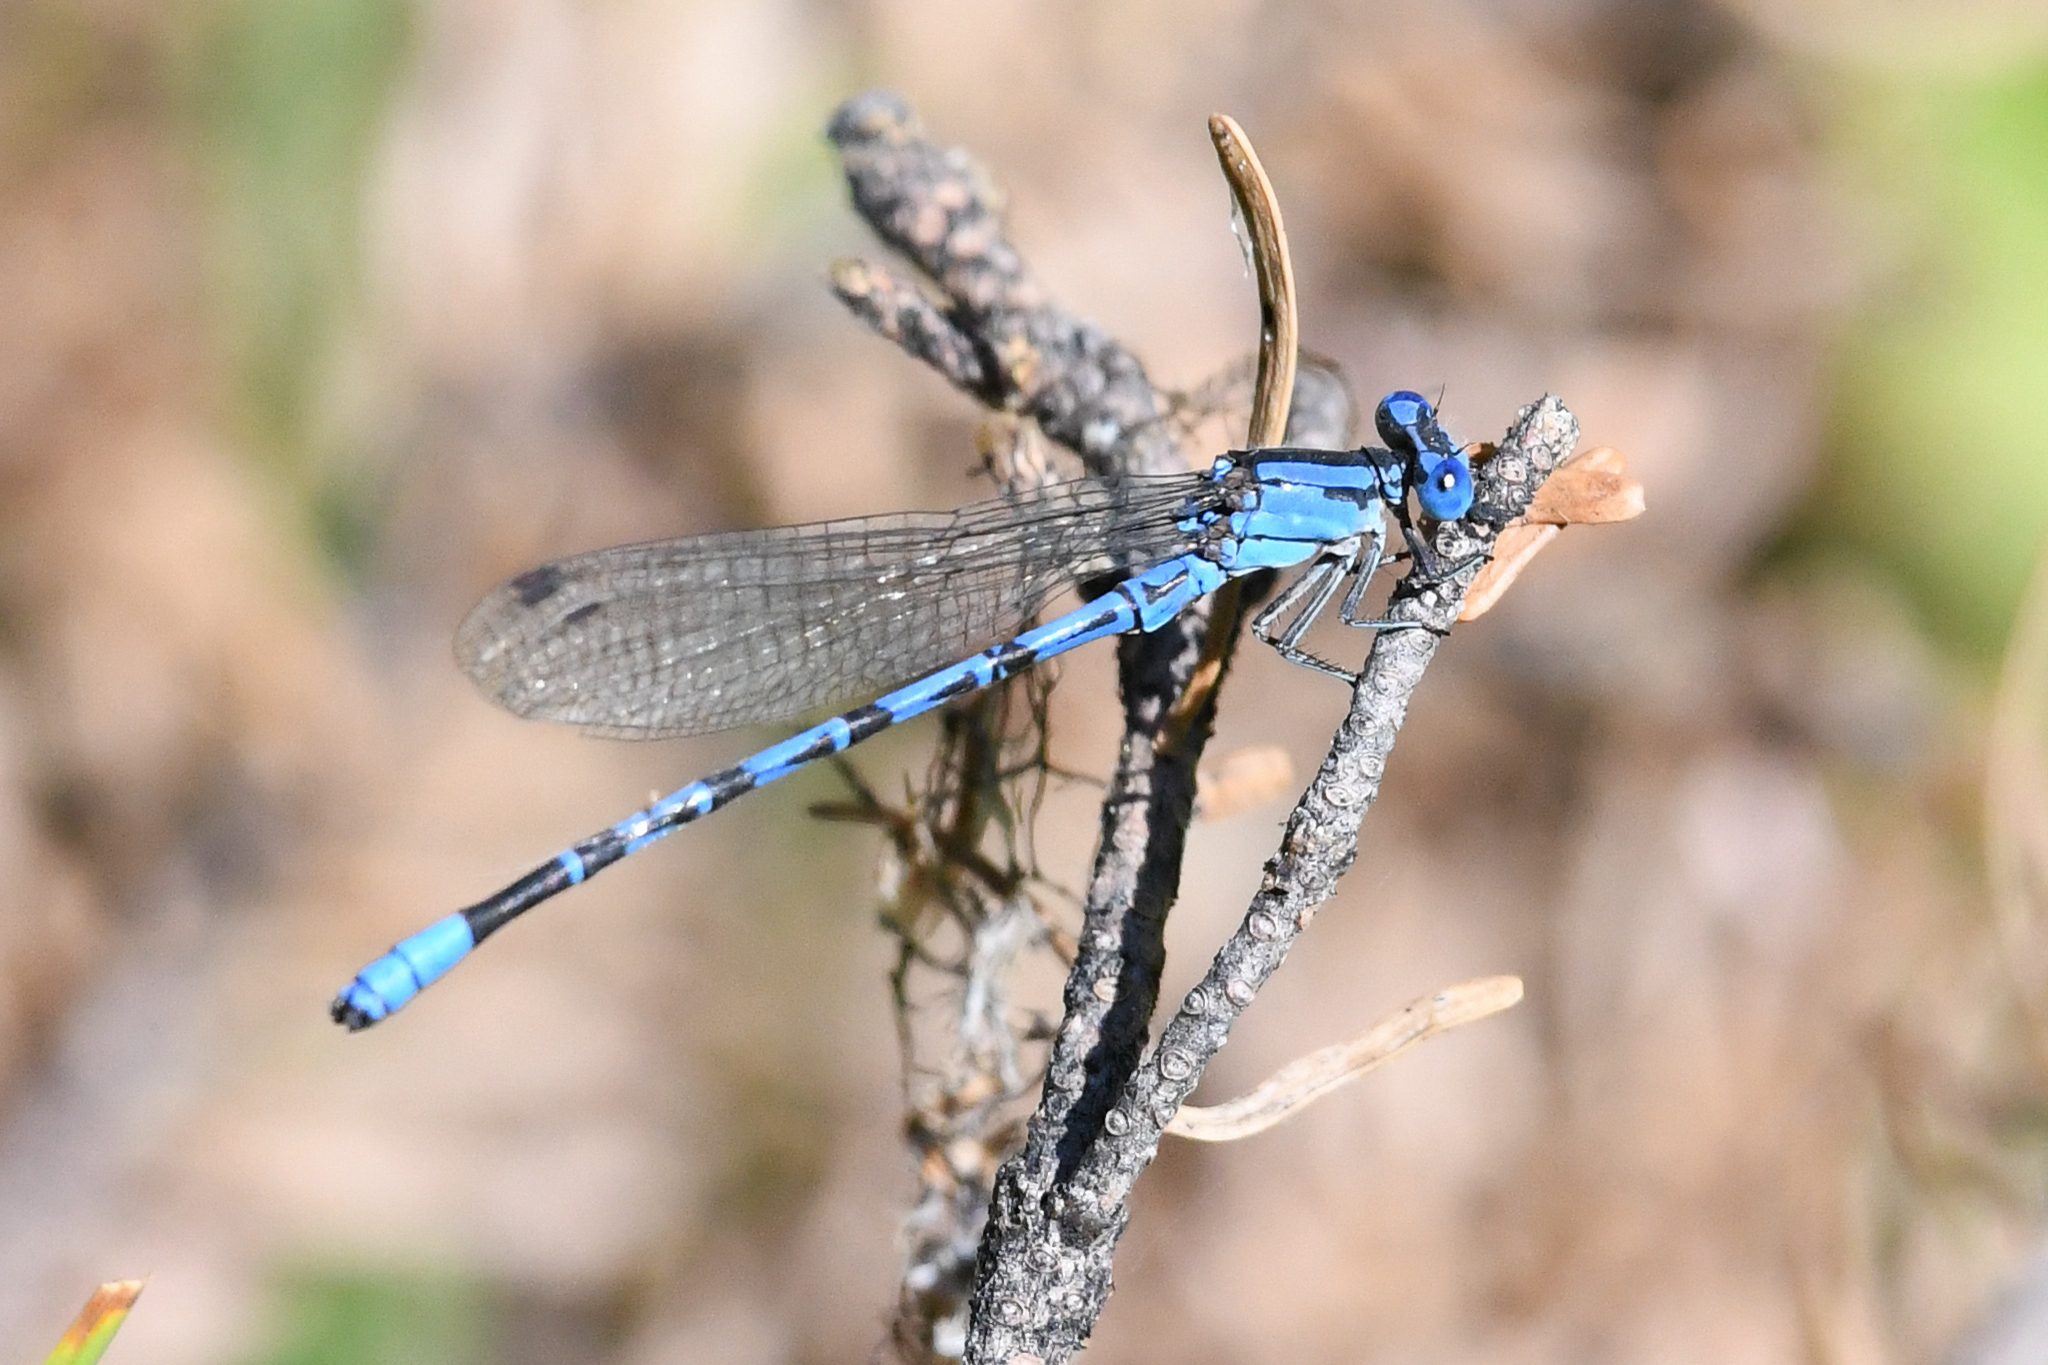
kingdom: Animalia
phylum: Arthropoda
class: Insecta
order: Odonata
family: Coenagrionidae
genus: Argia
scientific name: Argia vivida
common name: Vivid dancer
